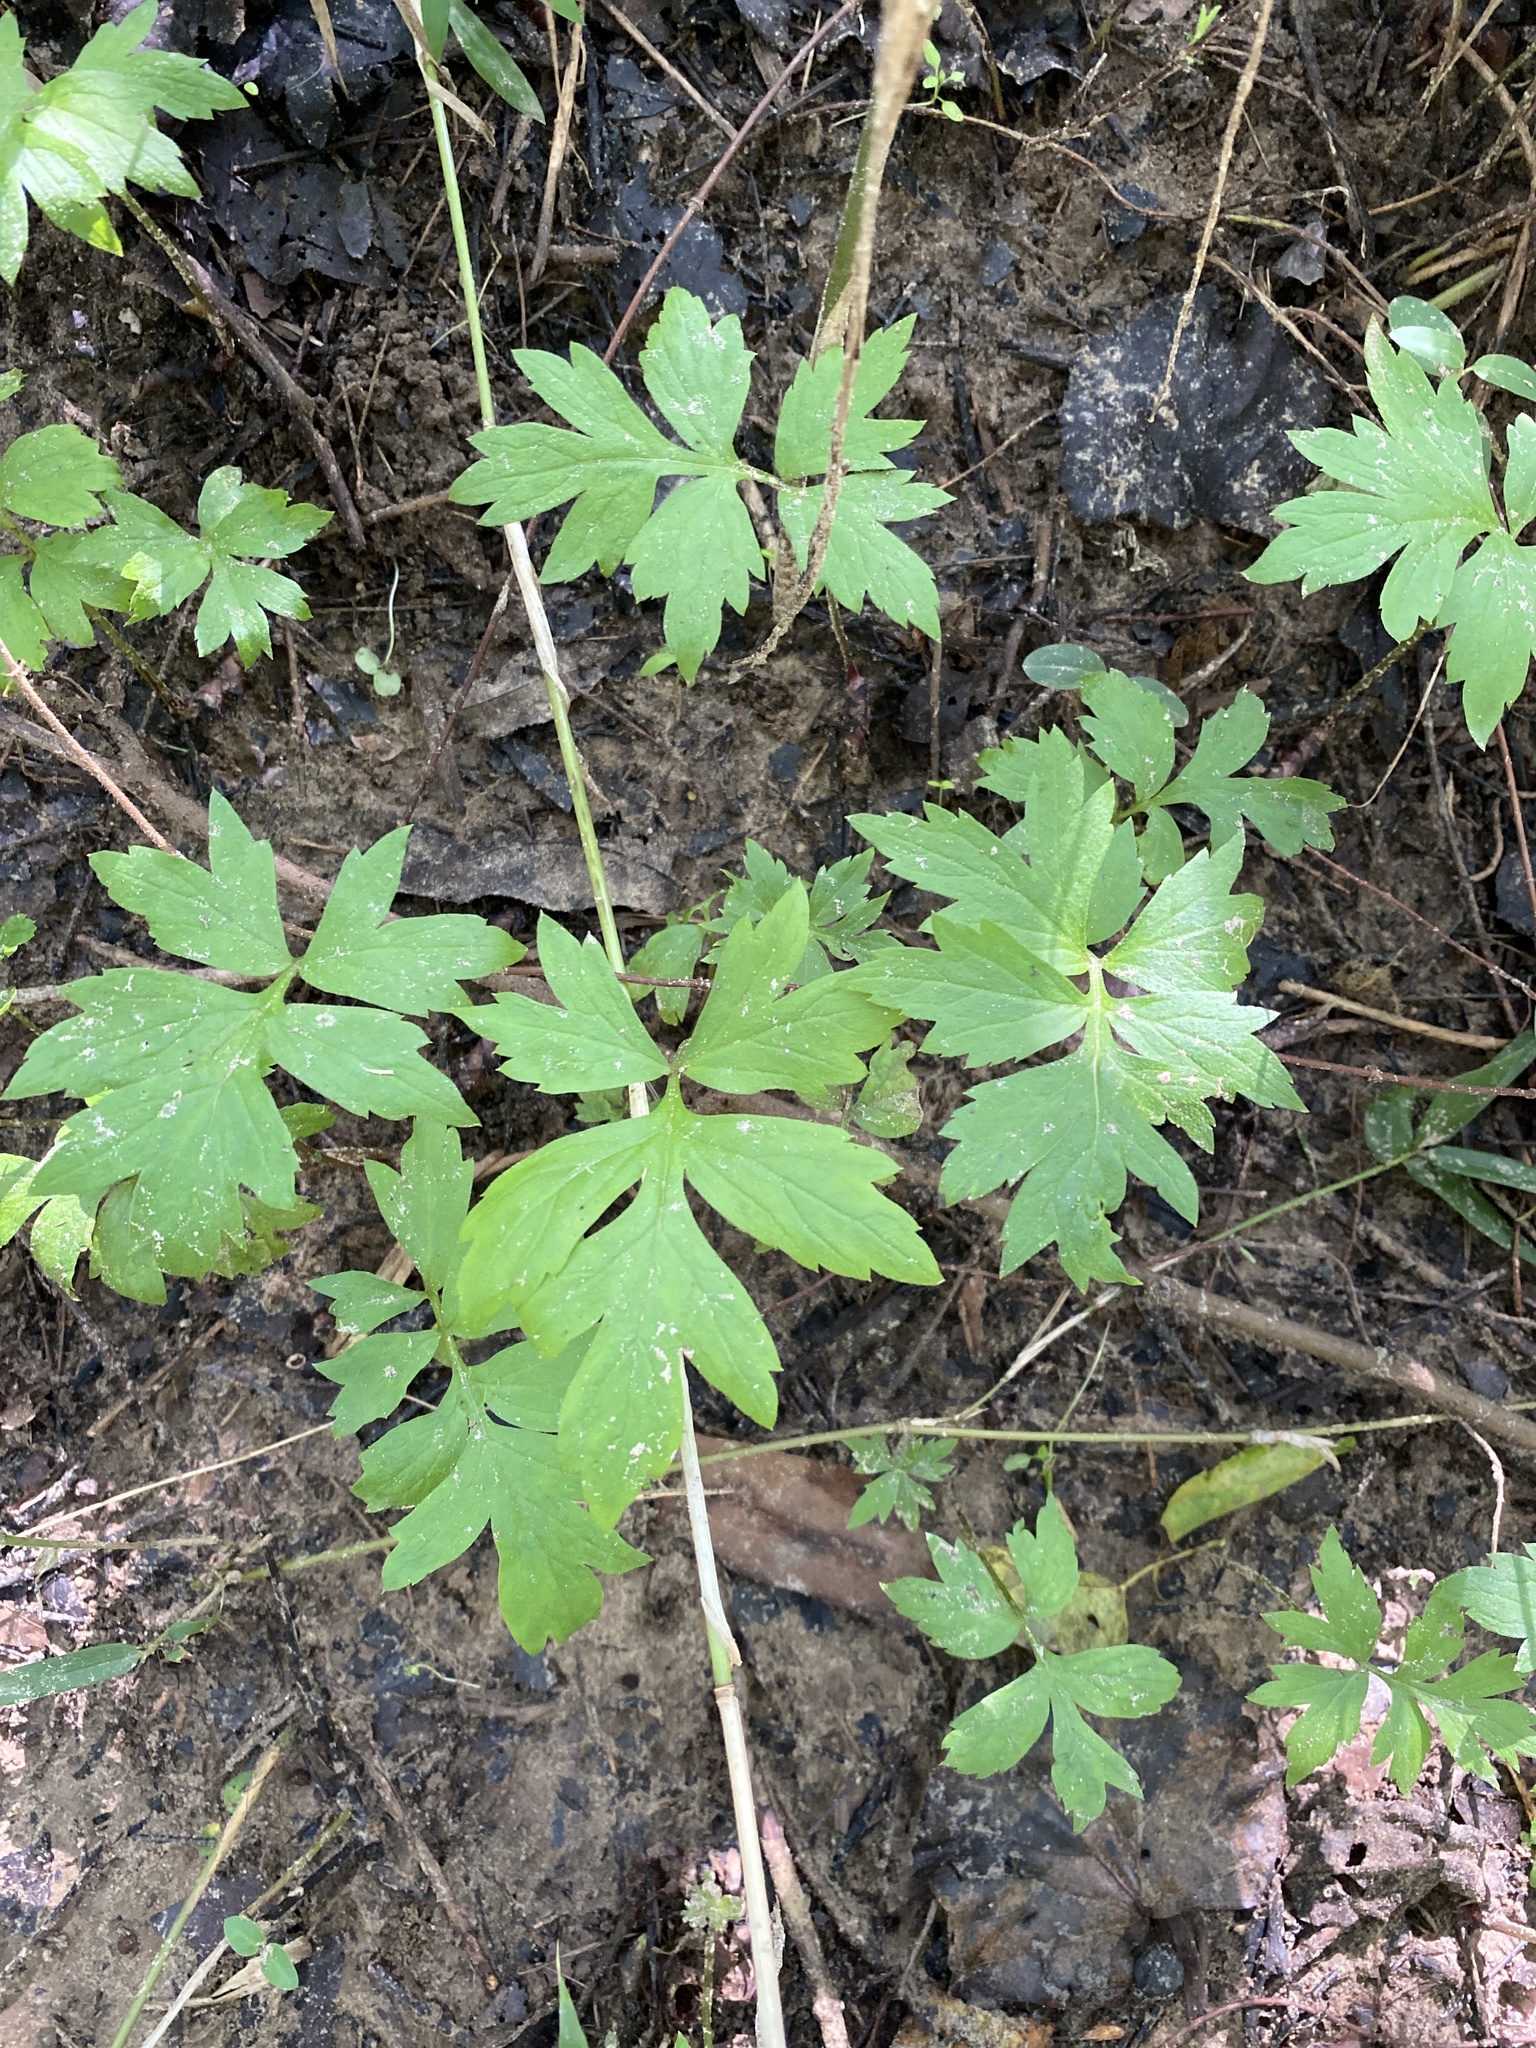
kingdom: Plantae
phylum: Tracheophyta
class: Magnoliopsida
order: Boraginales
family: Hydrophyllaceae
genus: Hydrophyllum
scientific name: Hydrophyllum virginianum
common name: Virginia waterleaf
